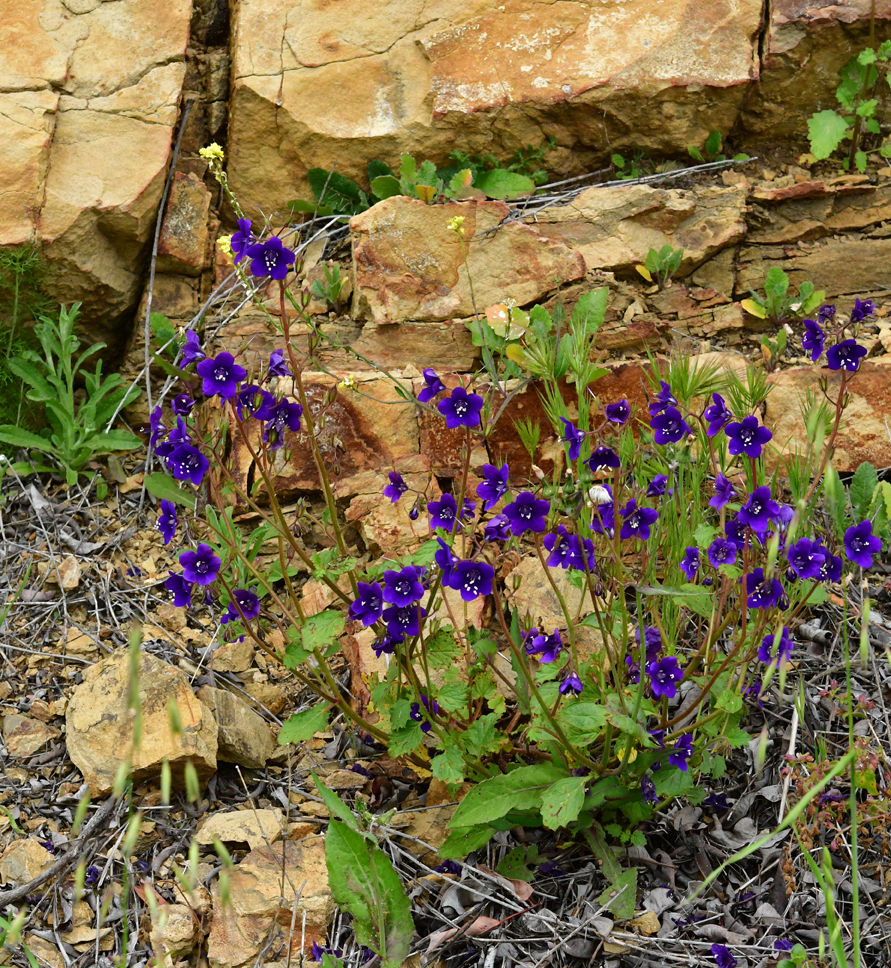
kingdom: Plantae
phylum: Tracheophyta
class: Magnoliopsida
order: Boraginales
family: Hydrophyllaceae
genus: Phacelia
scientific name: Phacelia parryi
